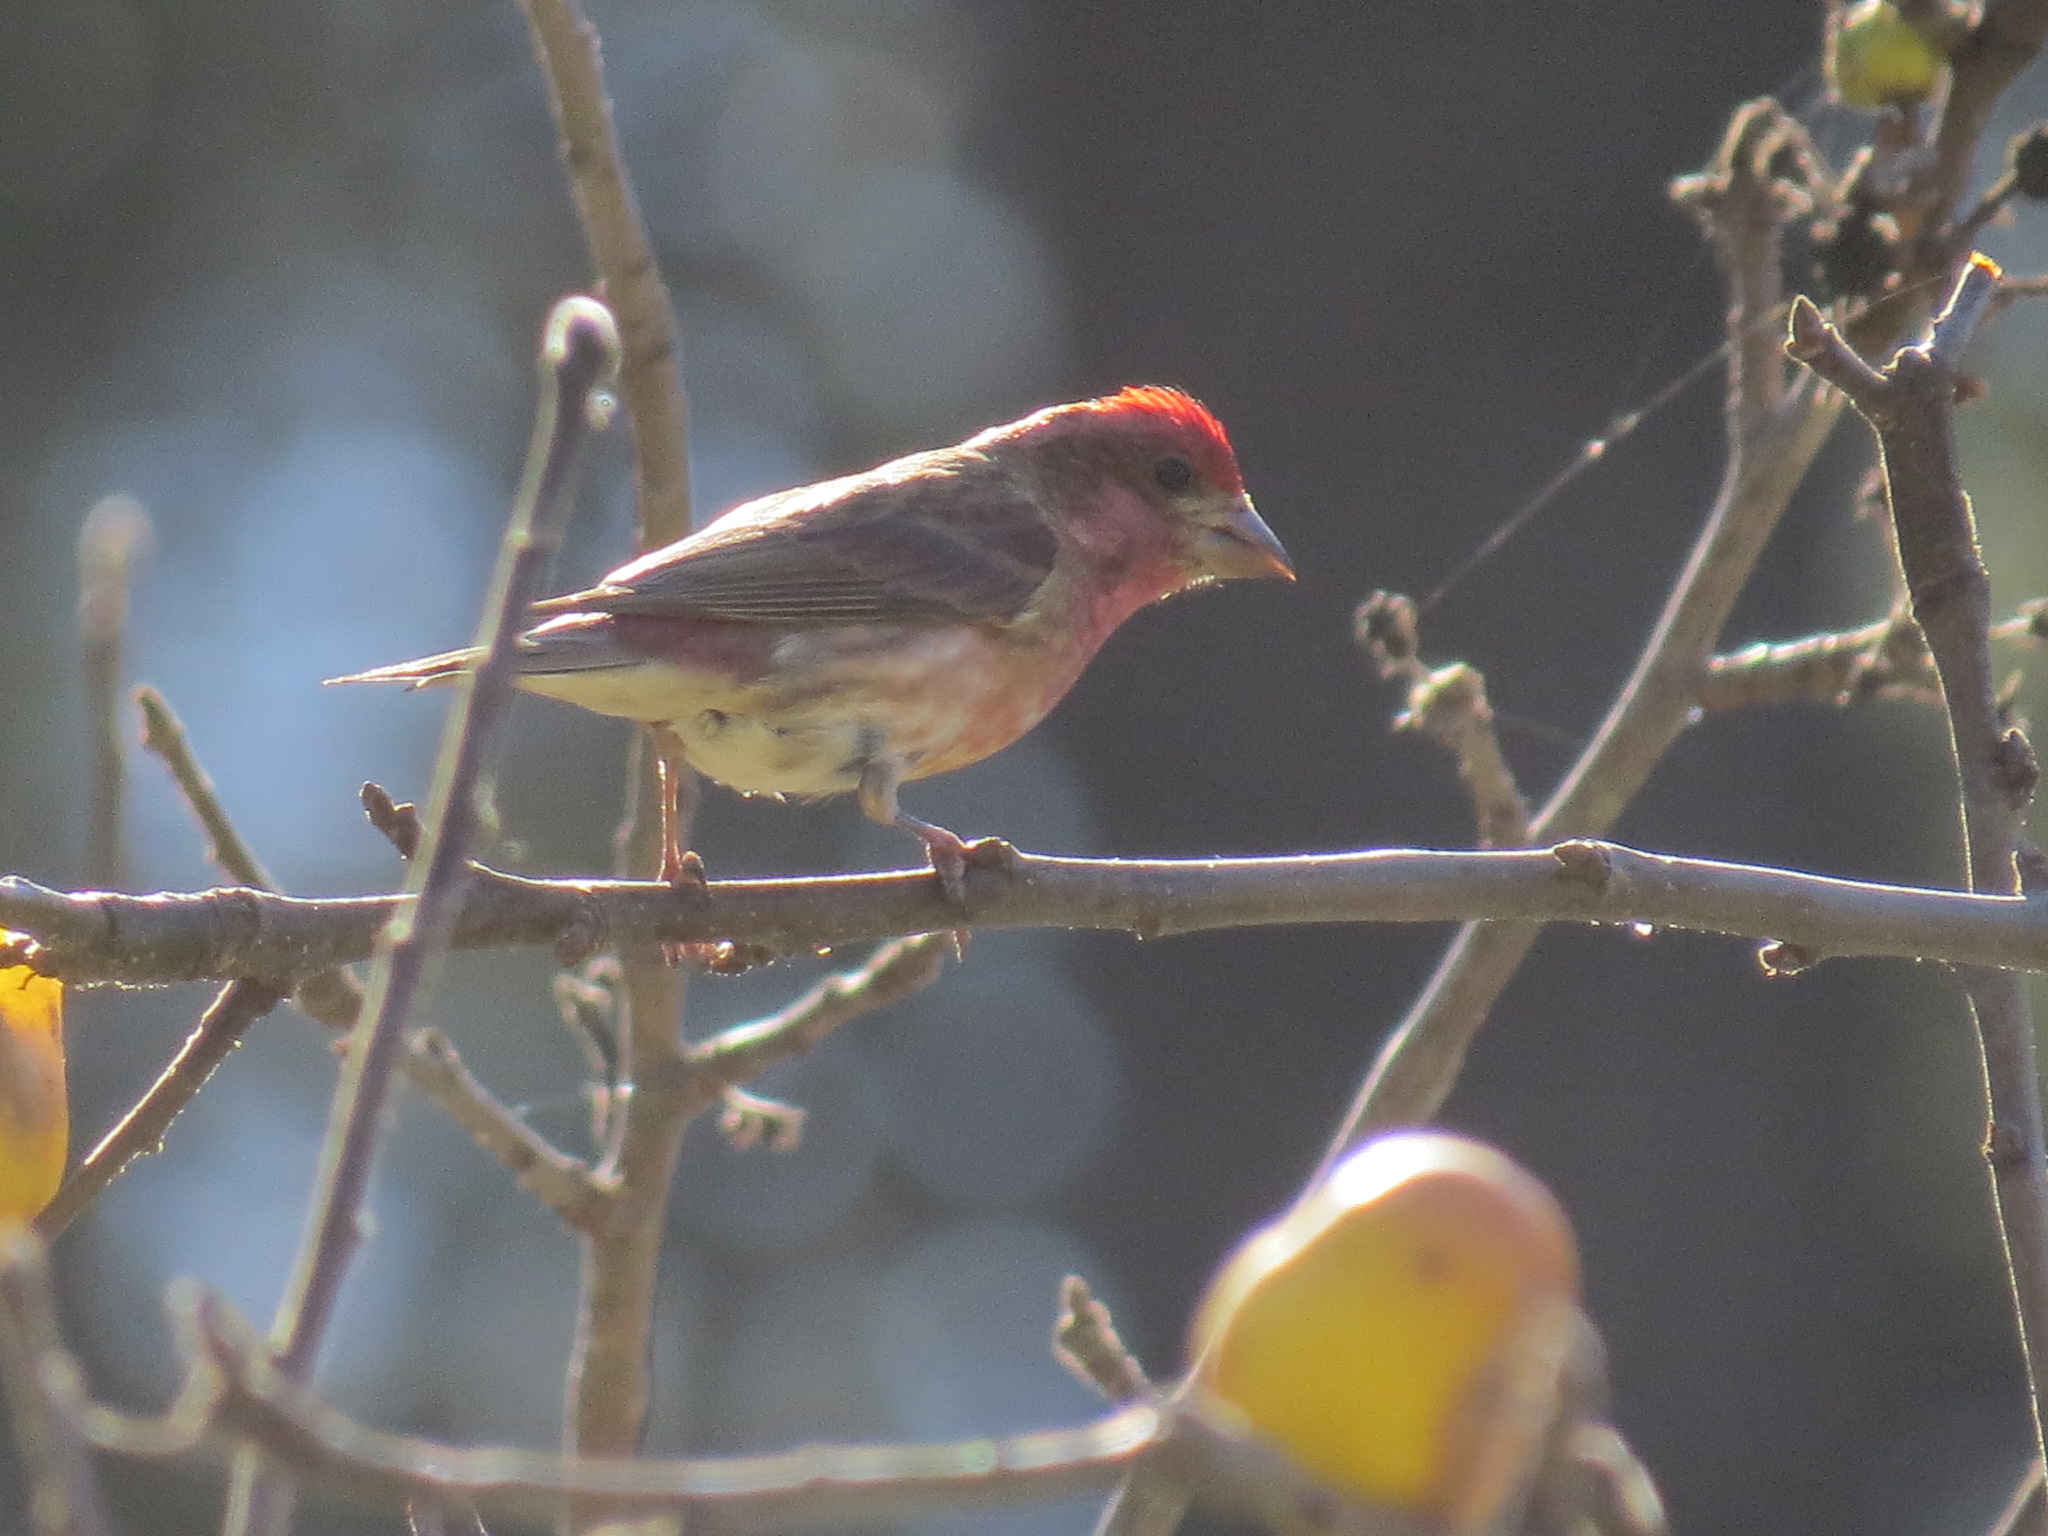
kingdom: Animalia
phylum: Chordata
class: Aves
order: Passeriformes
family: Fringillidae
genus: Haemorhous
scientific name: Haemorhous purpureus
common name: Purple finch
